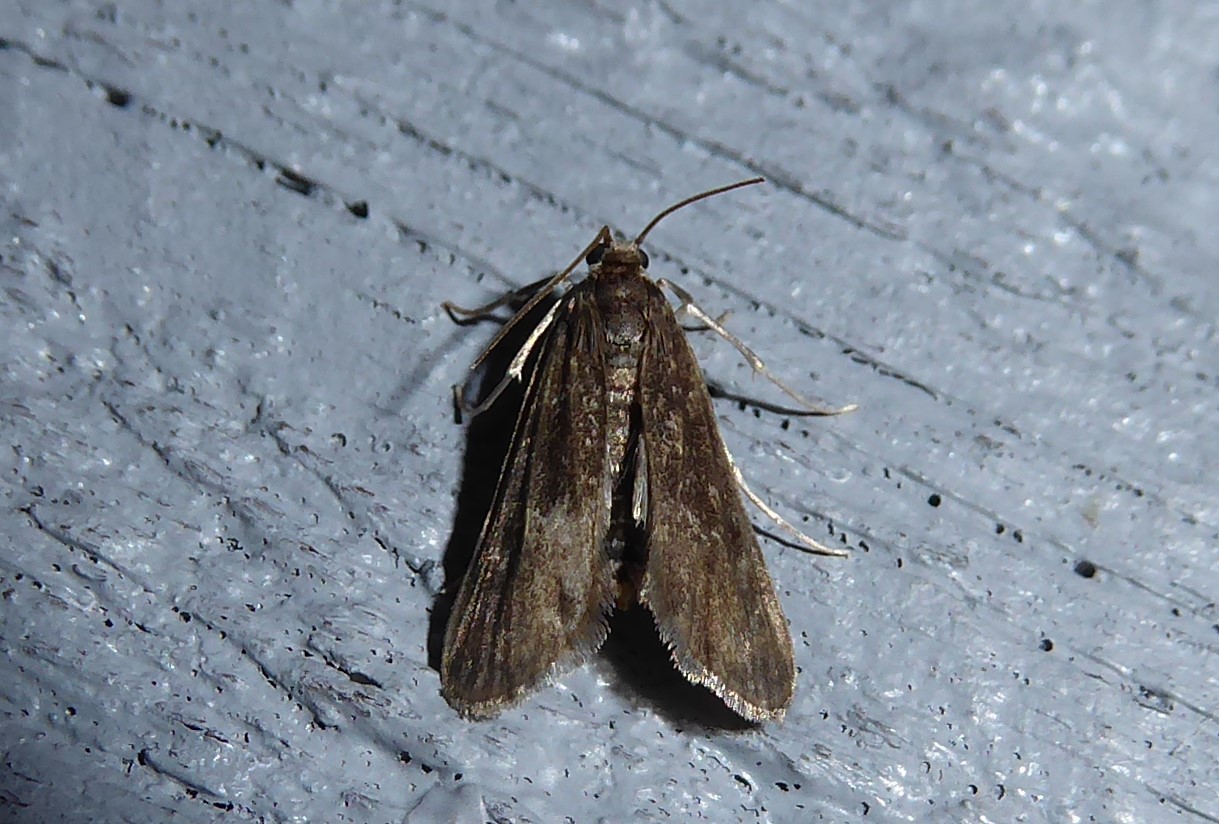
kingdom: Animalia
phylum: Arthropoda
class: Insecta
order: Lepidoptera
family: Crambidae
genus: Hygraula
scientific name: Hygraula nitens
